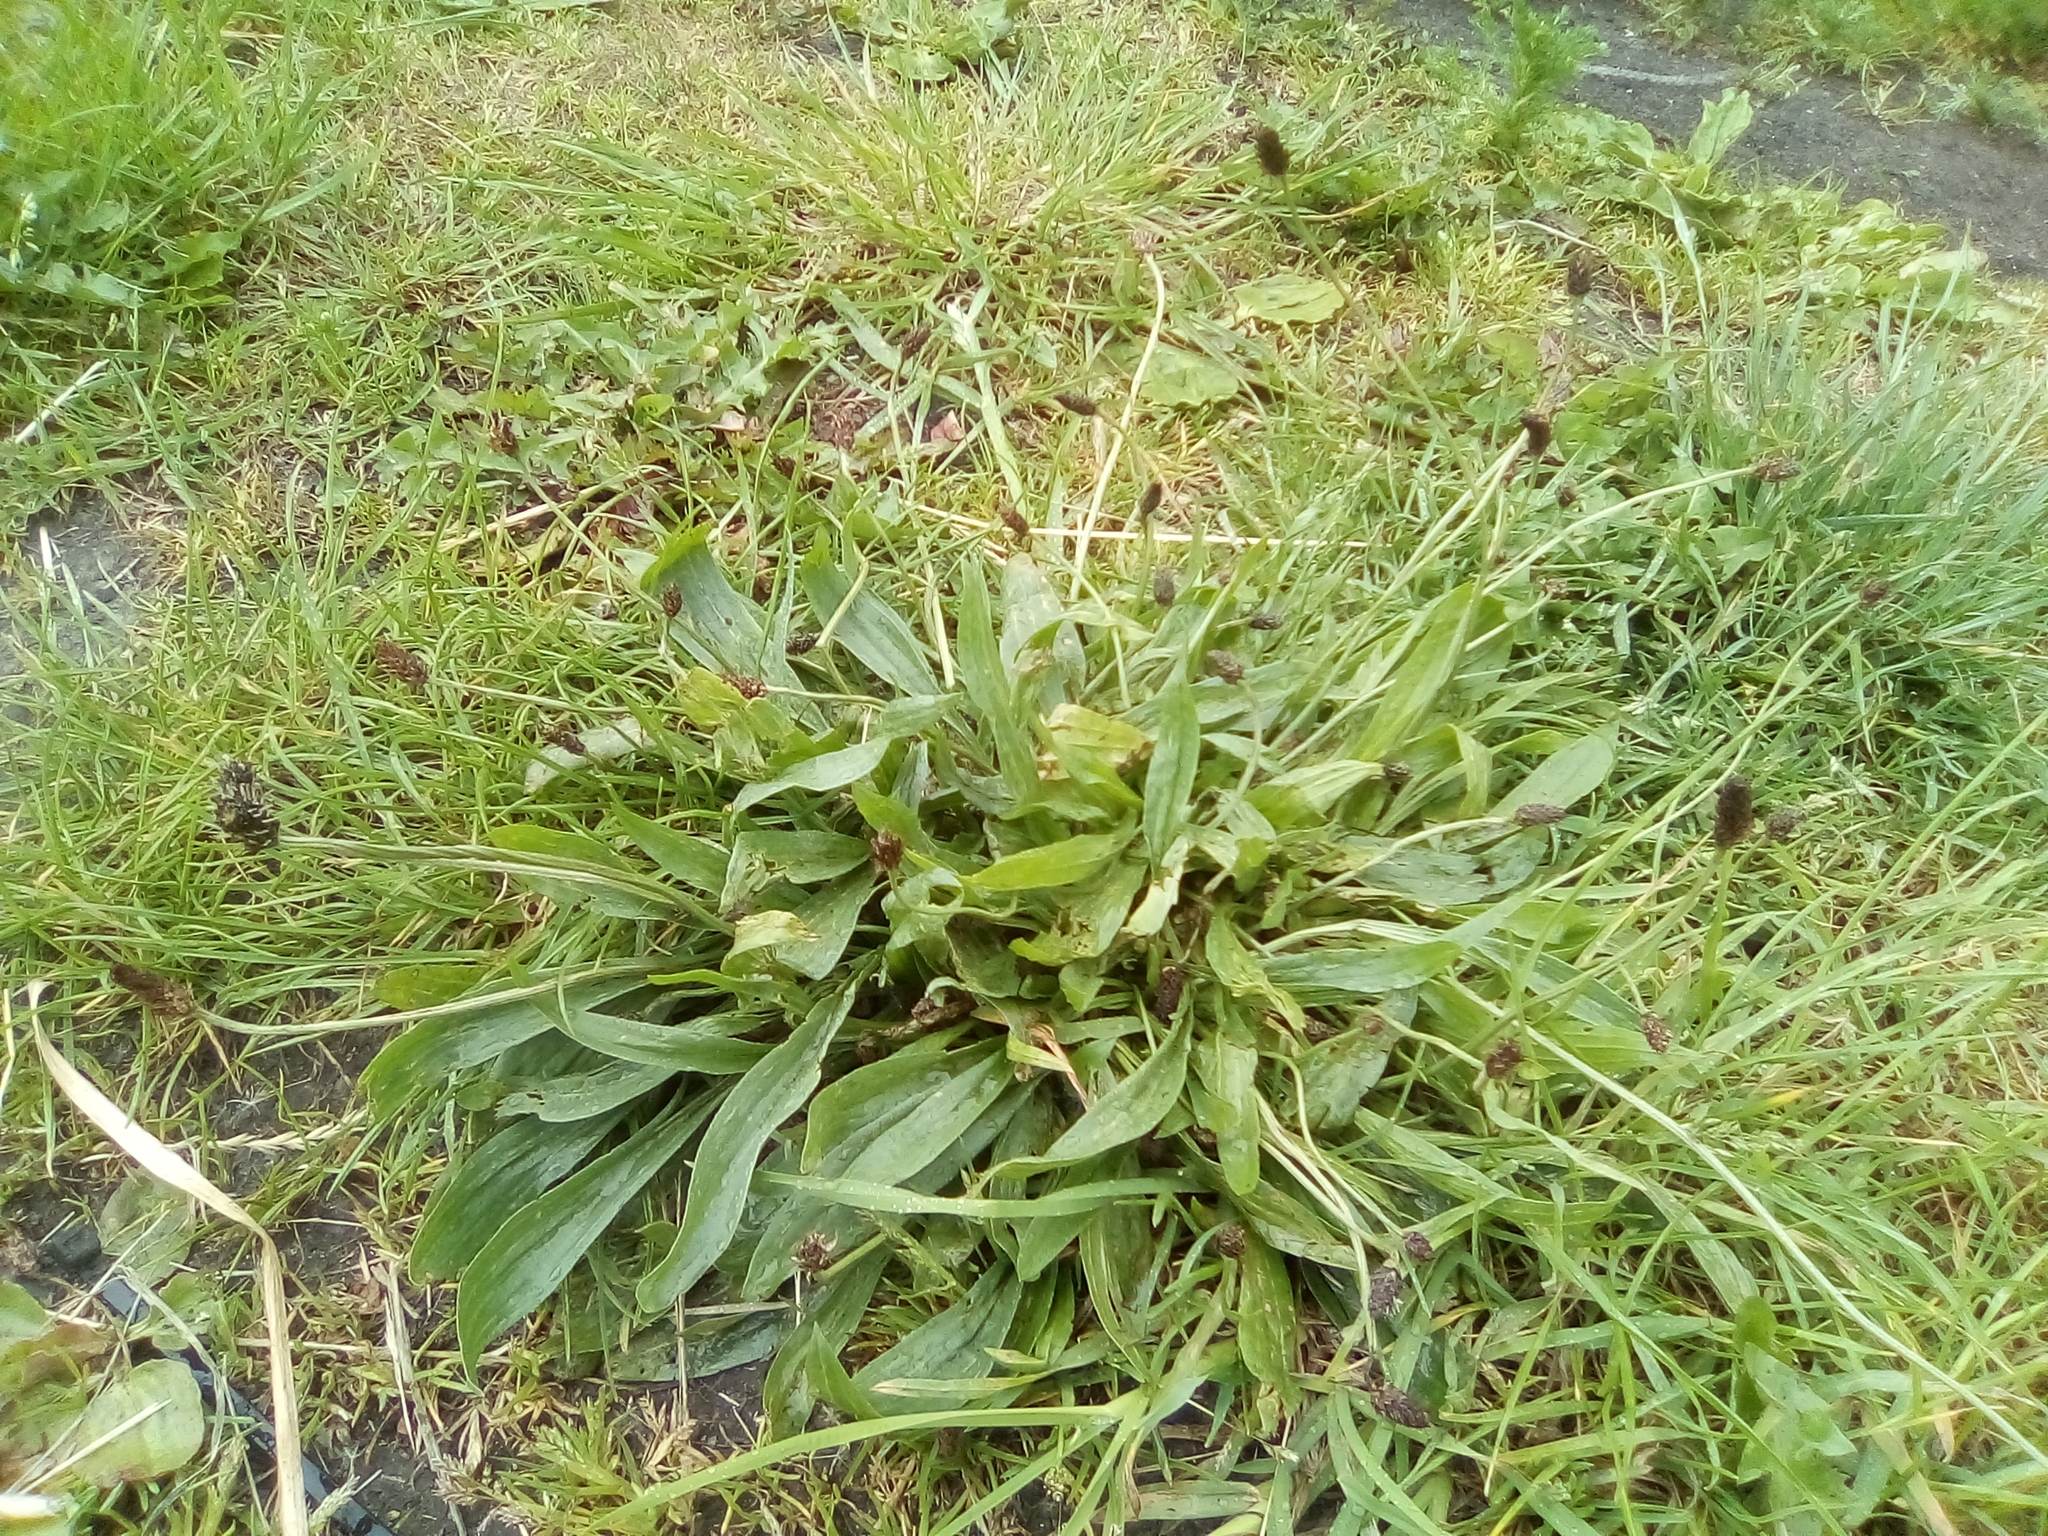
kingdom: Plantae
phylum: Tracheophyta
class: Magnoliopsida
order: Lamiales
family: Plantaginaceae
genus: Plantago
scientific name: Plantago lanceolata
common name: Ribwort plantain
